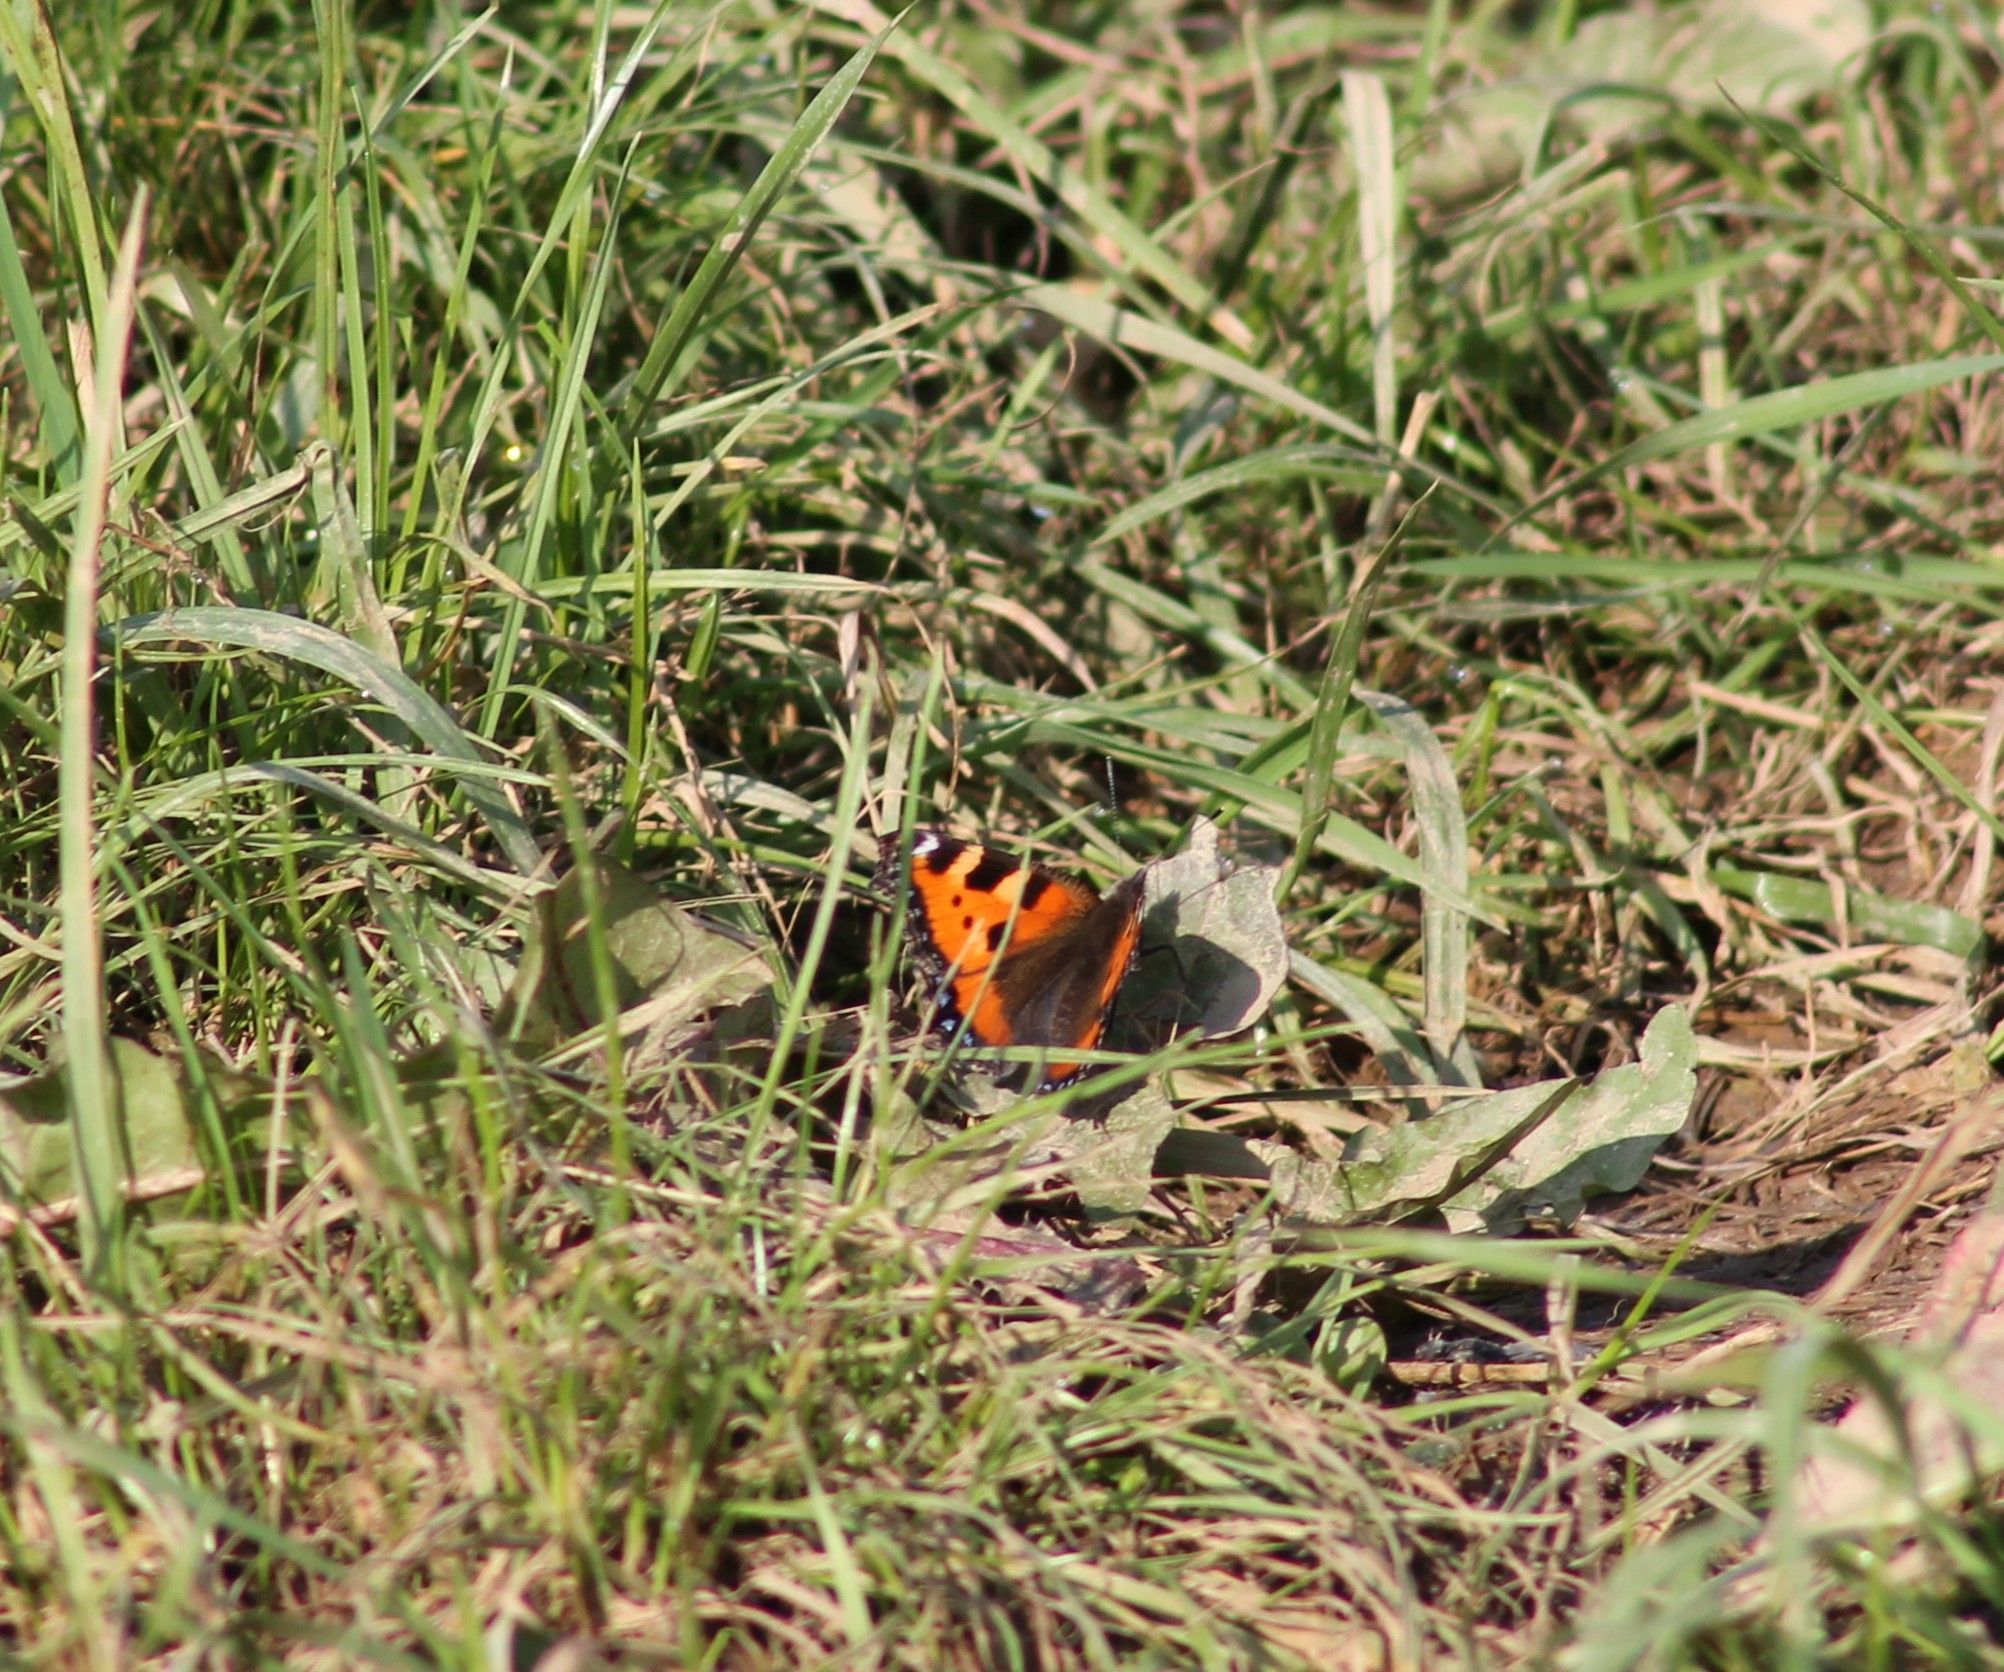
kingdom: Animalia
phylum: Arthropoda
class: Insecta
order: Lepidoptera
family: Nymphalidae
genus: Aglais
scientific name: Aglais urticae
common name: Small tortoiseshell
